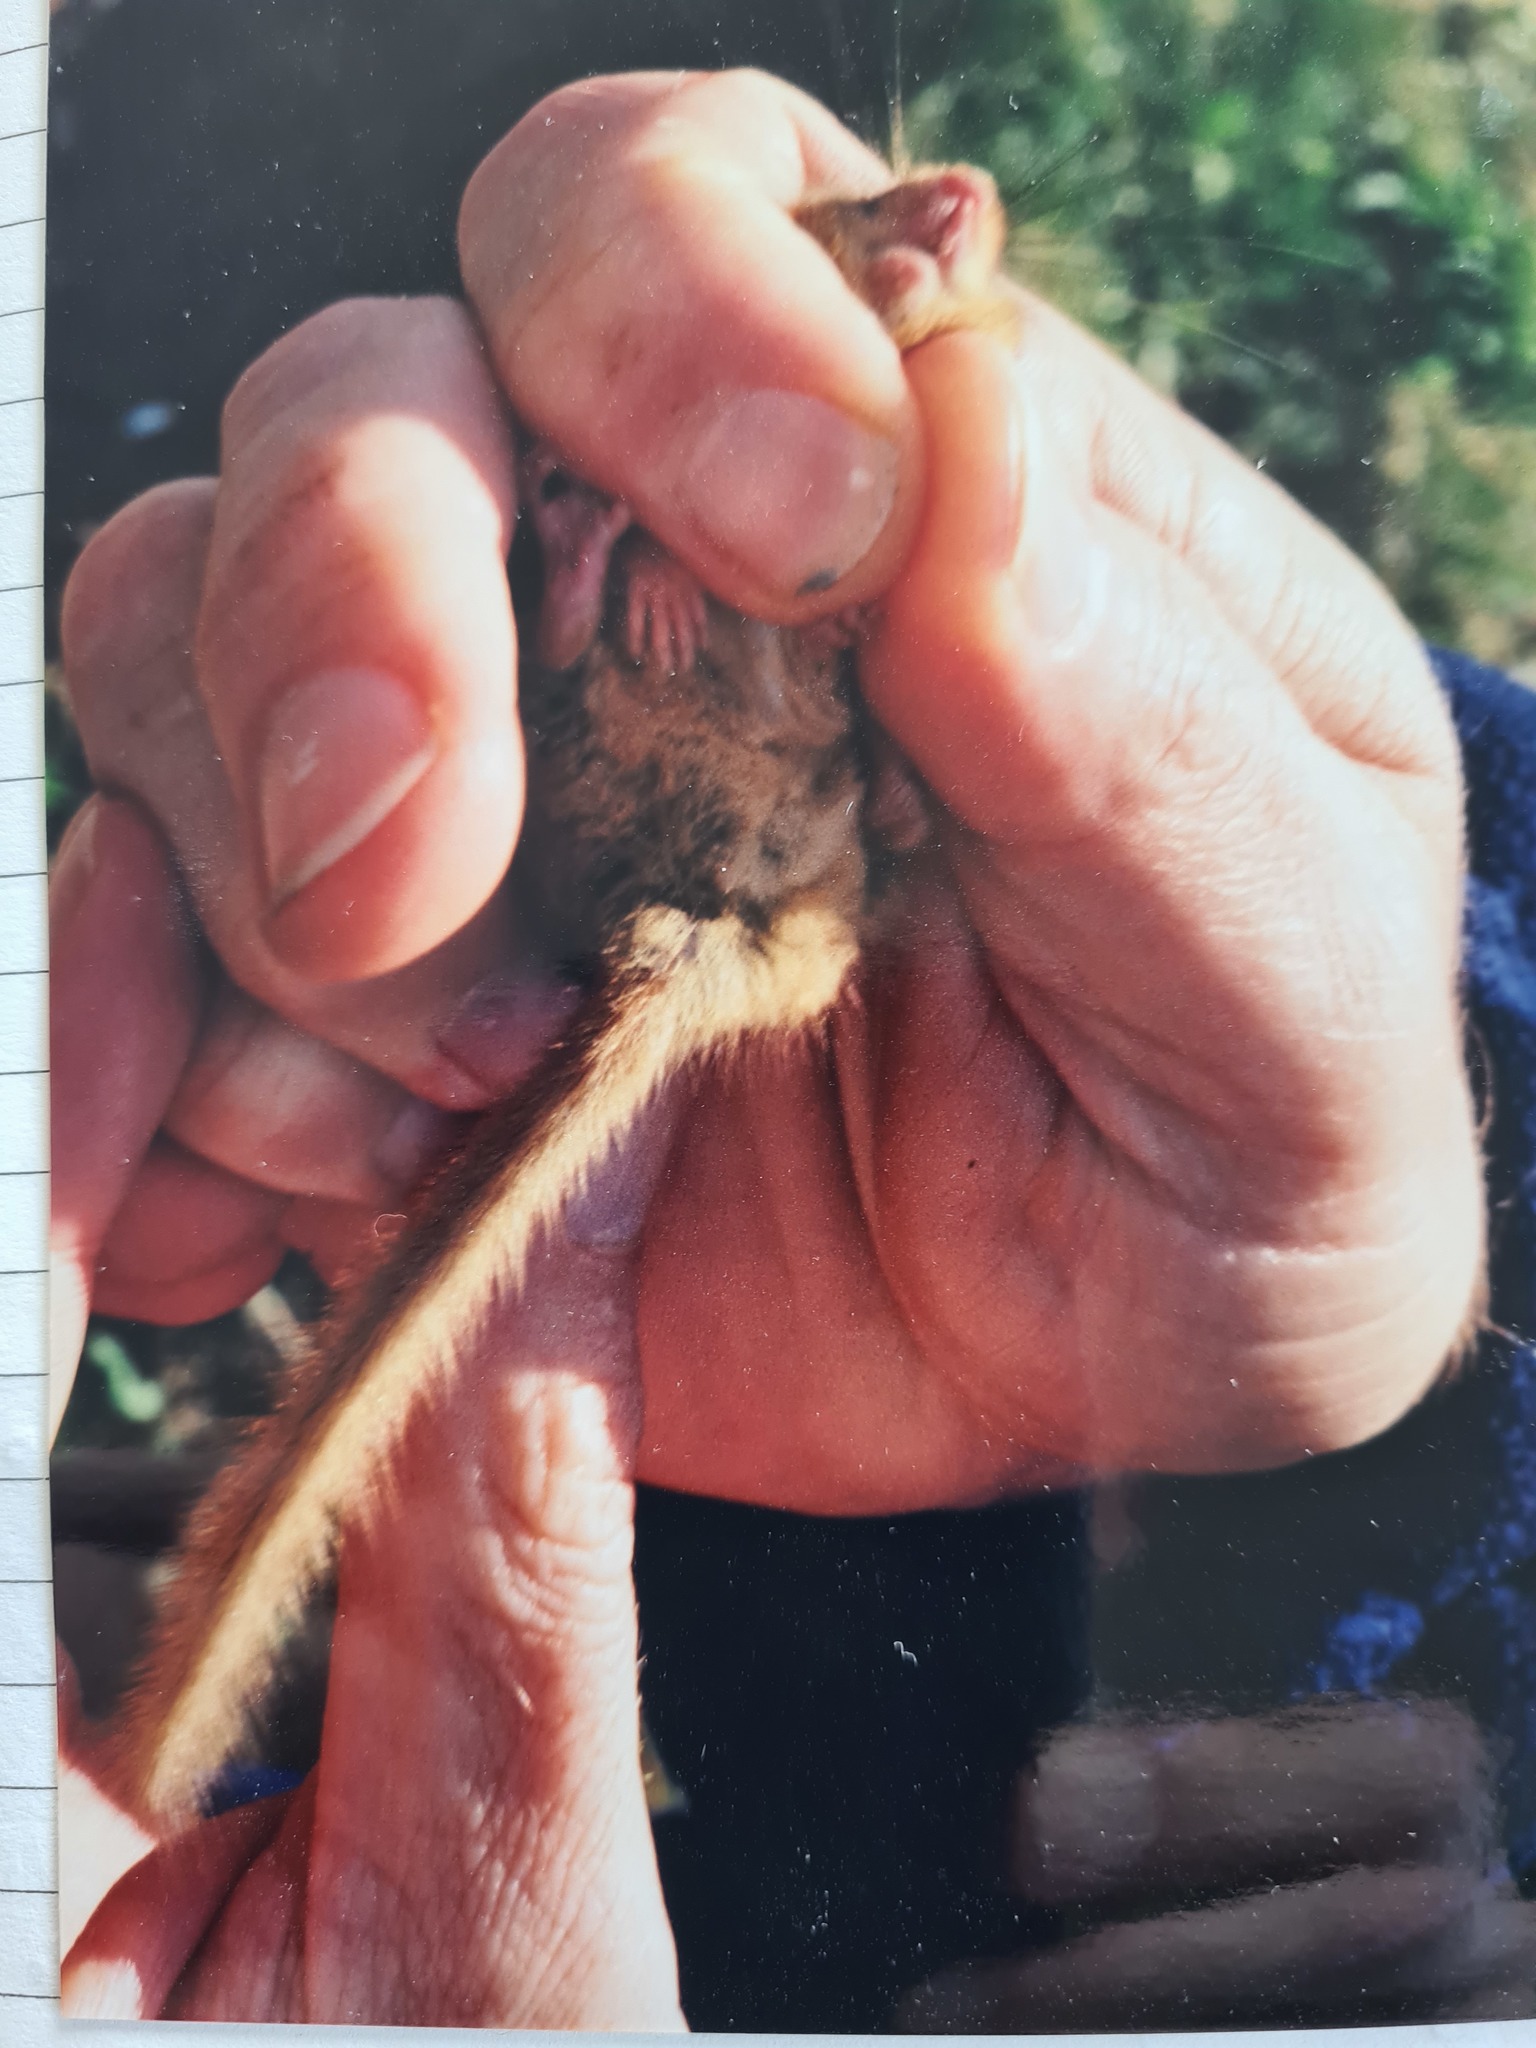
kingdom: Animalia
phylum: Chordata
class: Mammalia
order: Rodentia
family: Gliridae
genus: Muscardinus
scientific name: Muscardinus avellanarius
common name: Hazel dormouse
